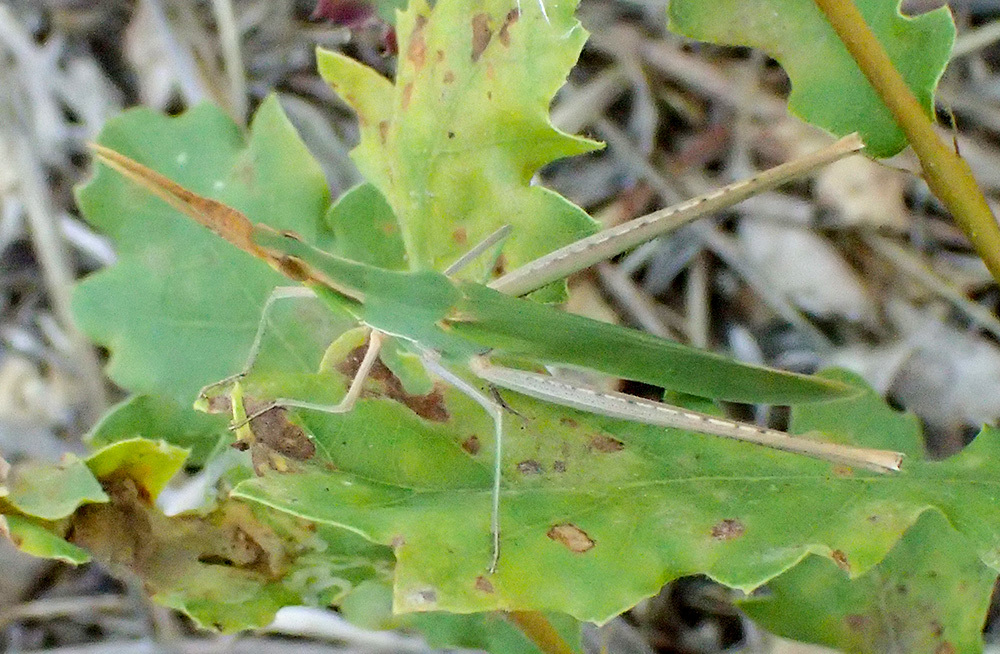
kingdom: Animalia
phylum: Arthropoda
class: Insecta
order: Orthoptera
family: Acrididae
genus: Acrida
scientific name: Acrida ungarica
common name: Common cone-headed grasshopper
